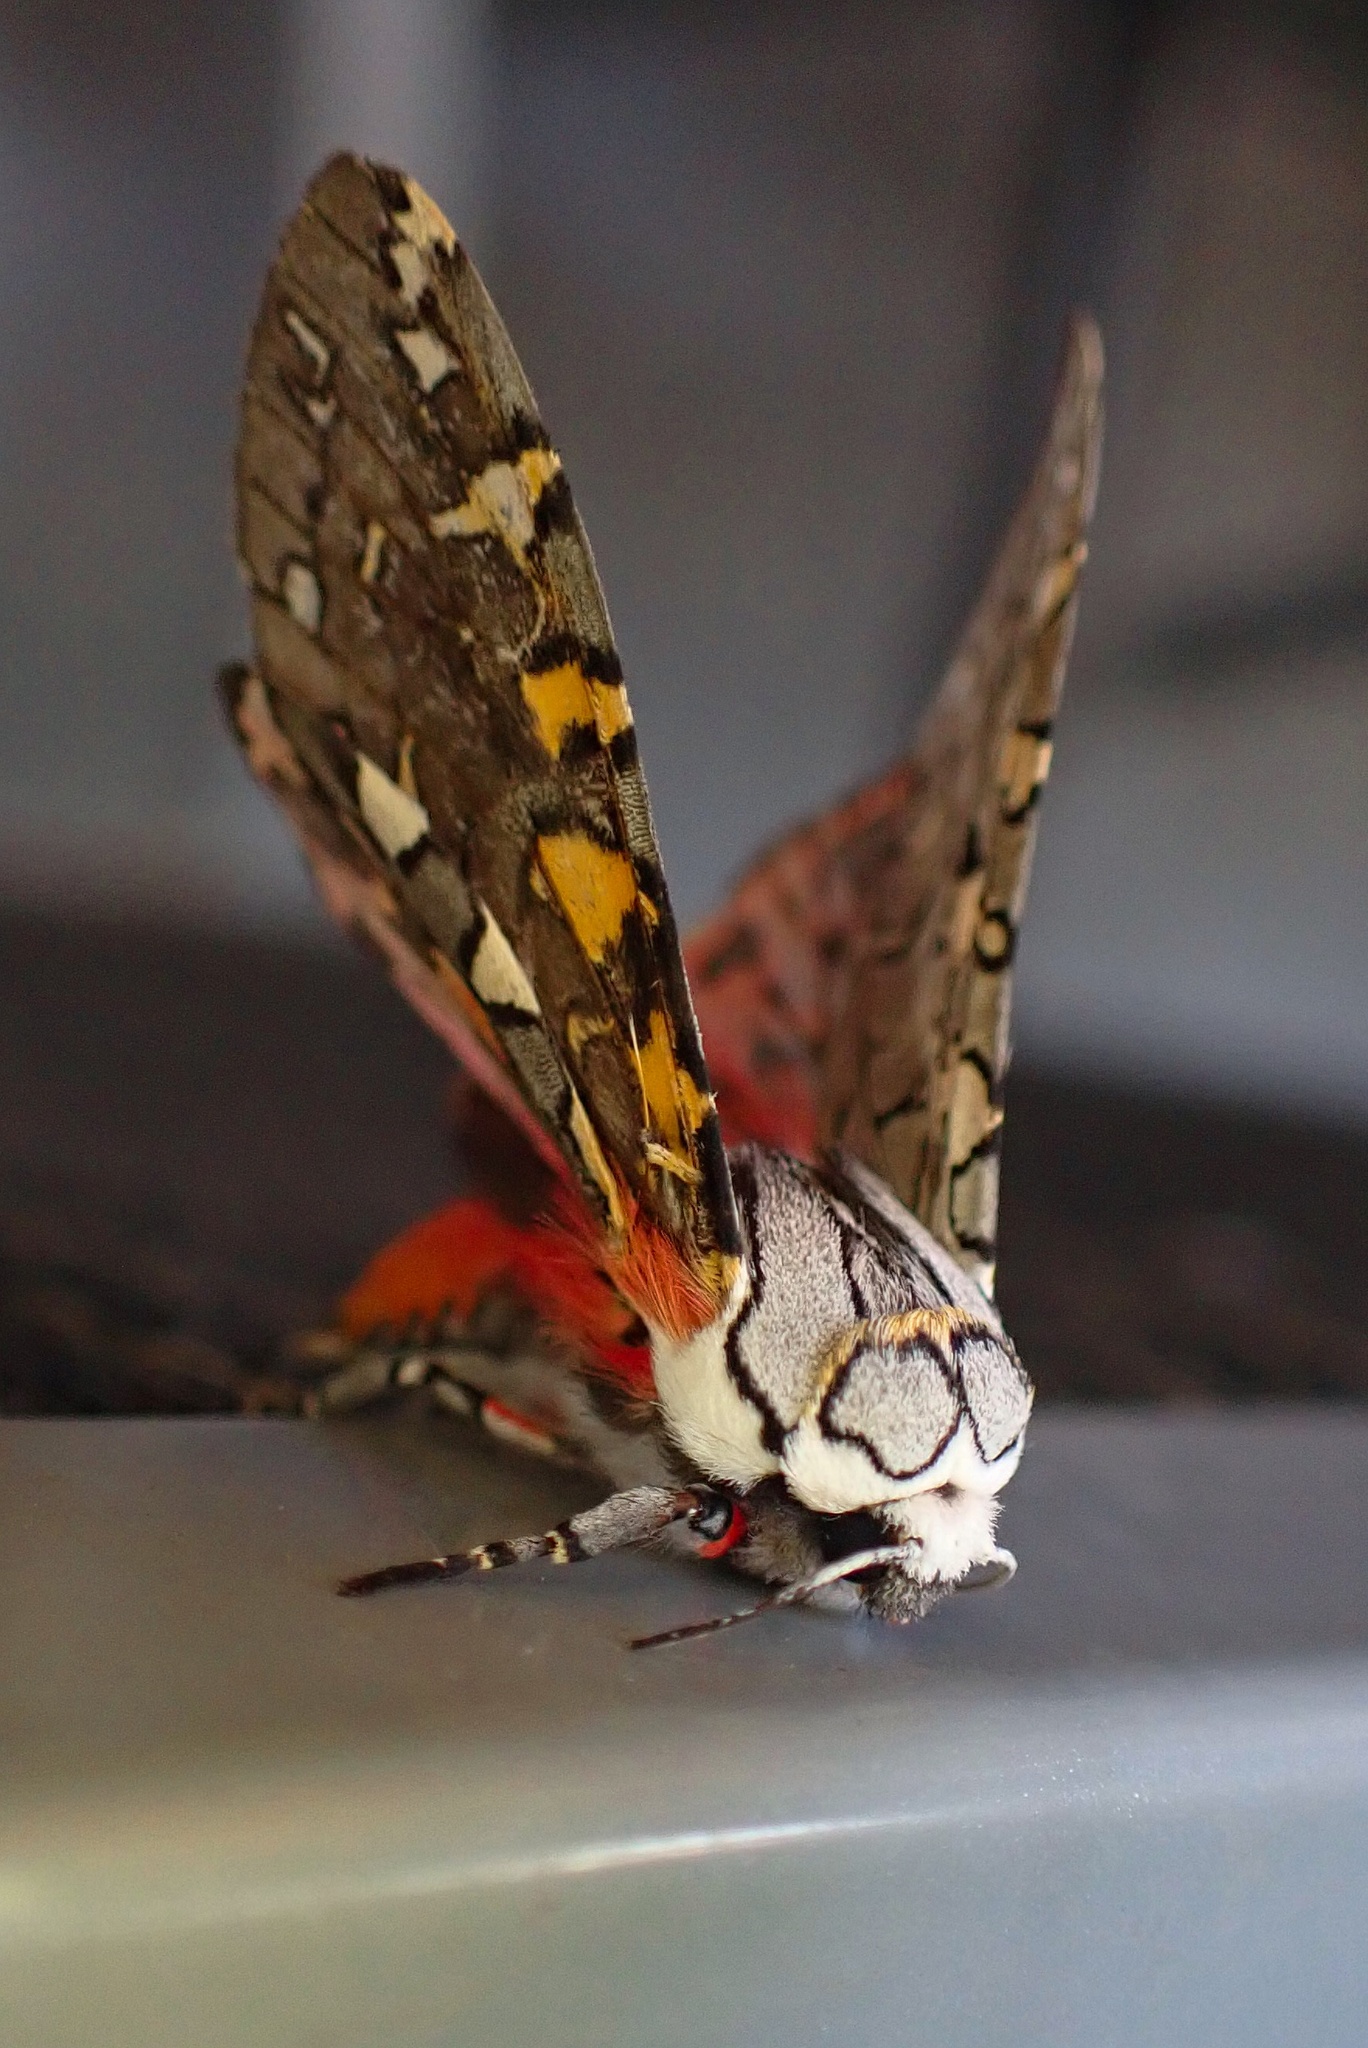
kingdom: Animalia
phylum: Arthropoda
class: Insecta
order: Lepidoptera
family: Erebidae
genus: Arachnis
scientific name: Arachnis picta
